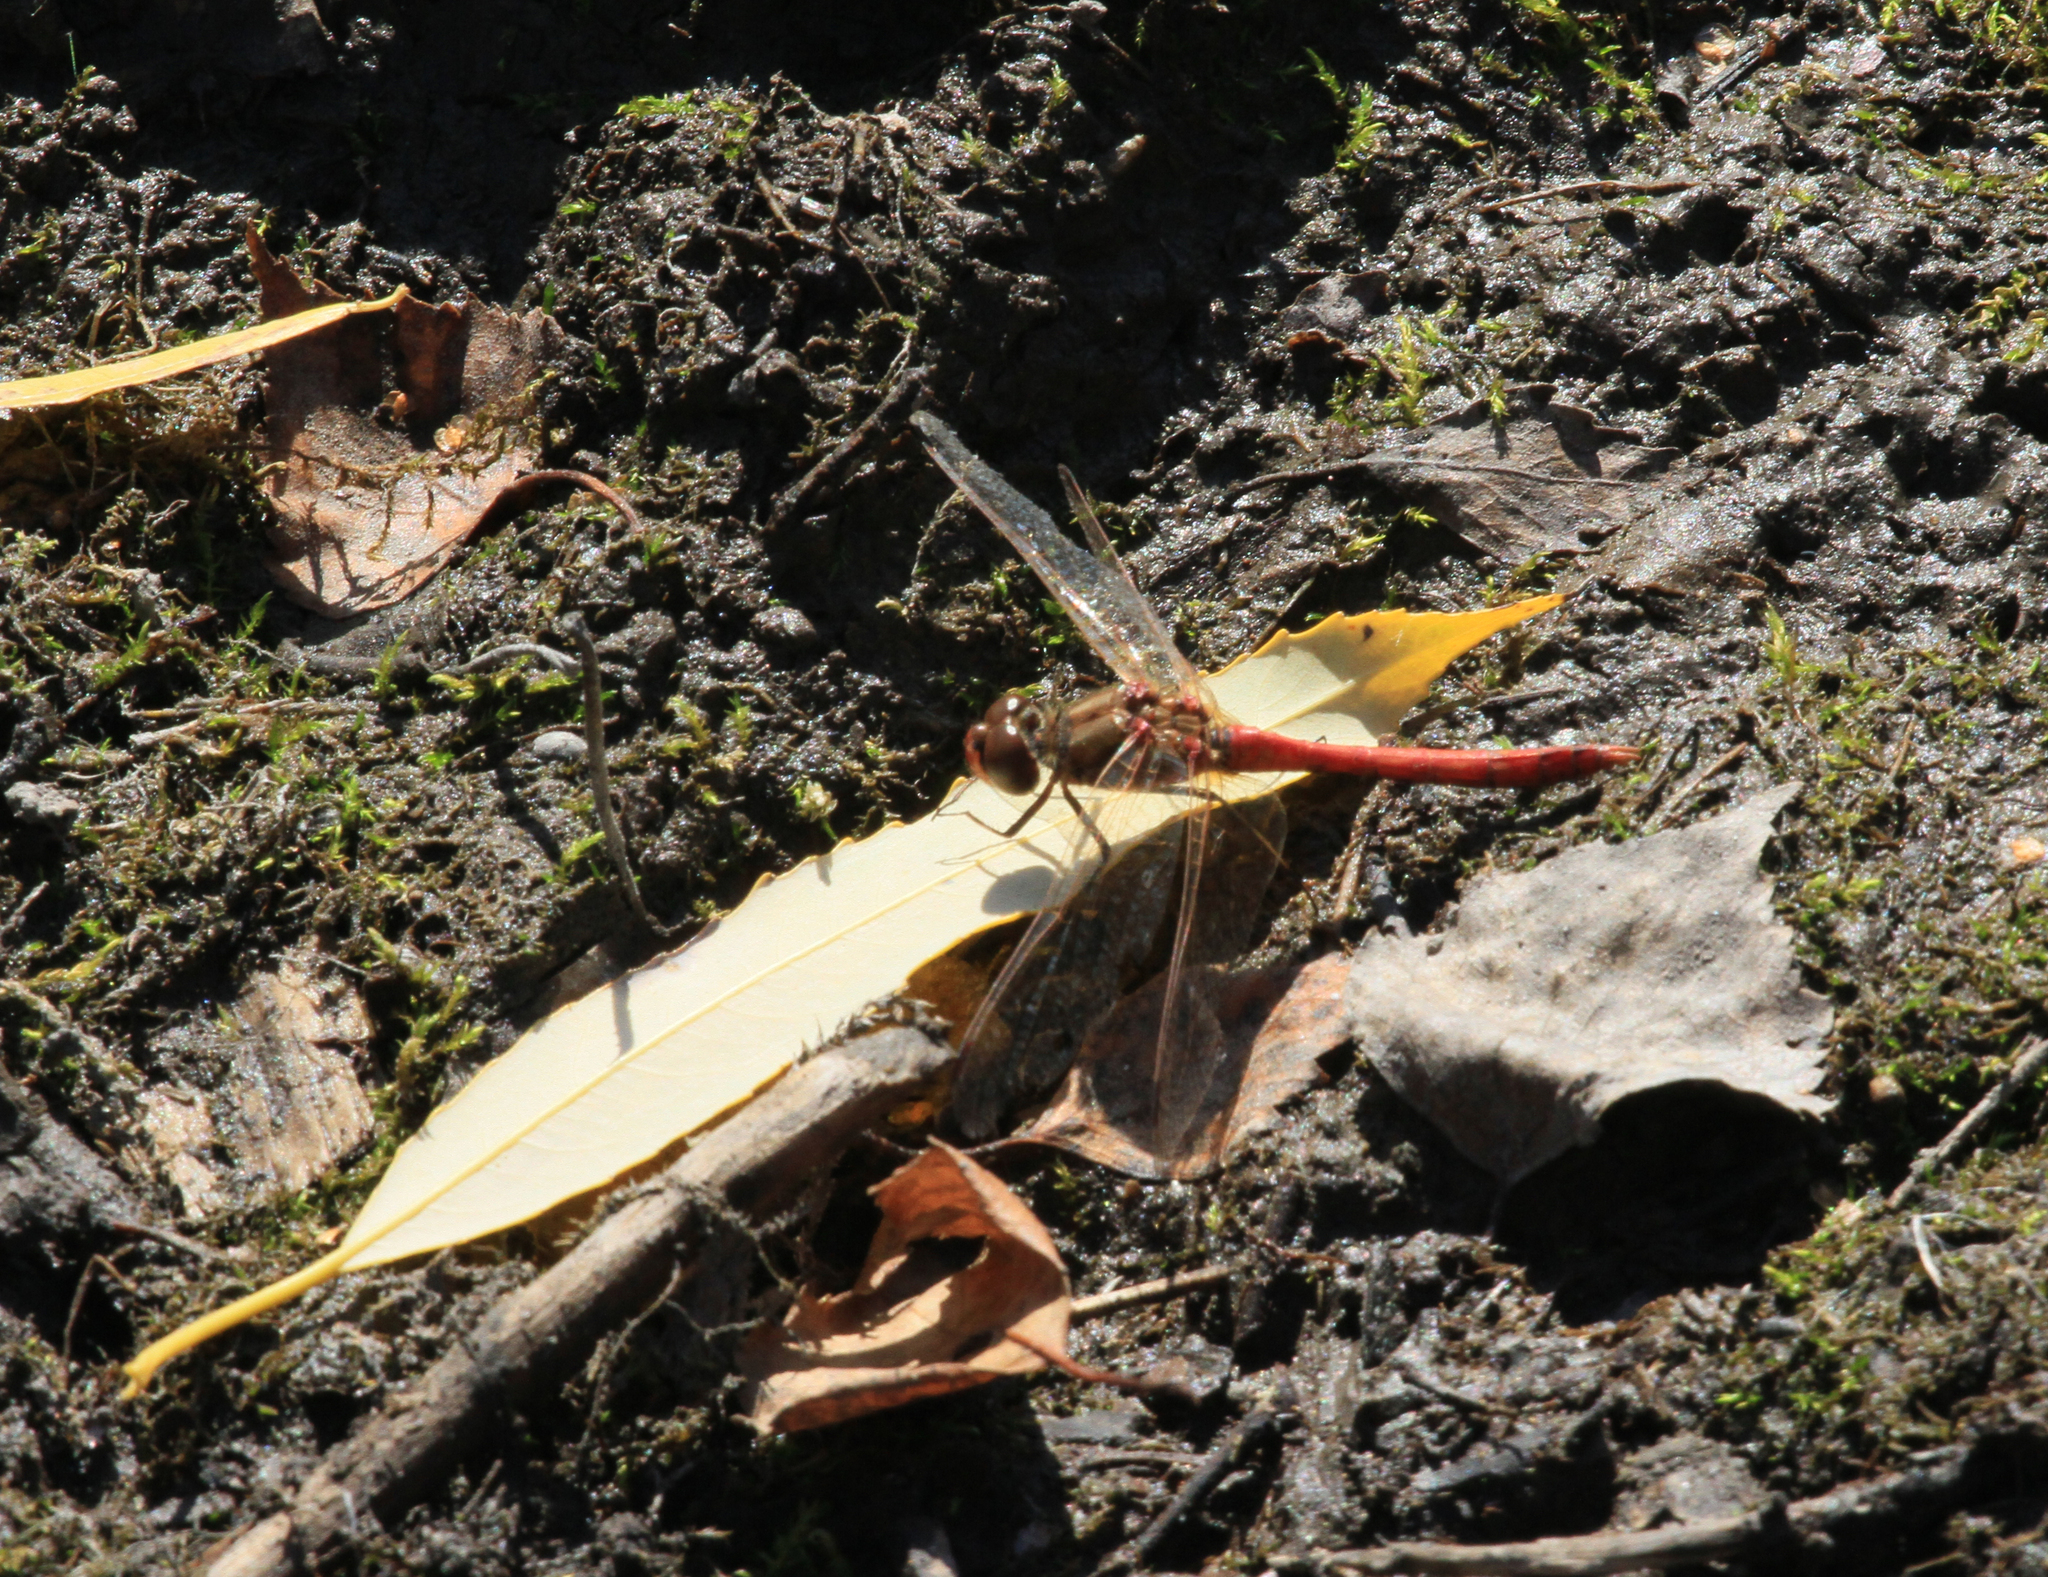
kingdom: Animalia
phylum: Arthropoda
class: Insecta
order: Odonata
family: Libellulidae
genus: Sympetrum
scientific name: Sympetrum vulgatum
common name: Vagrant darter
